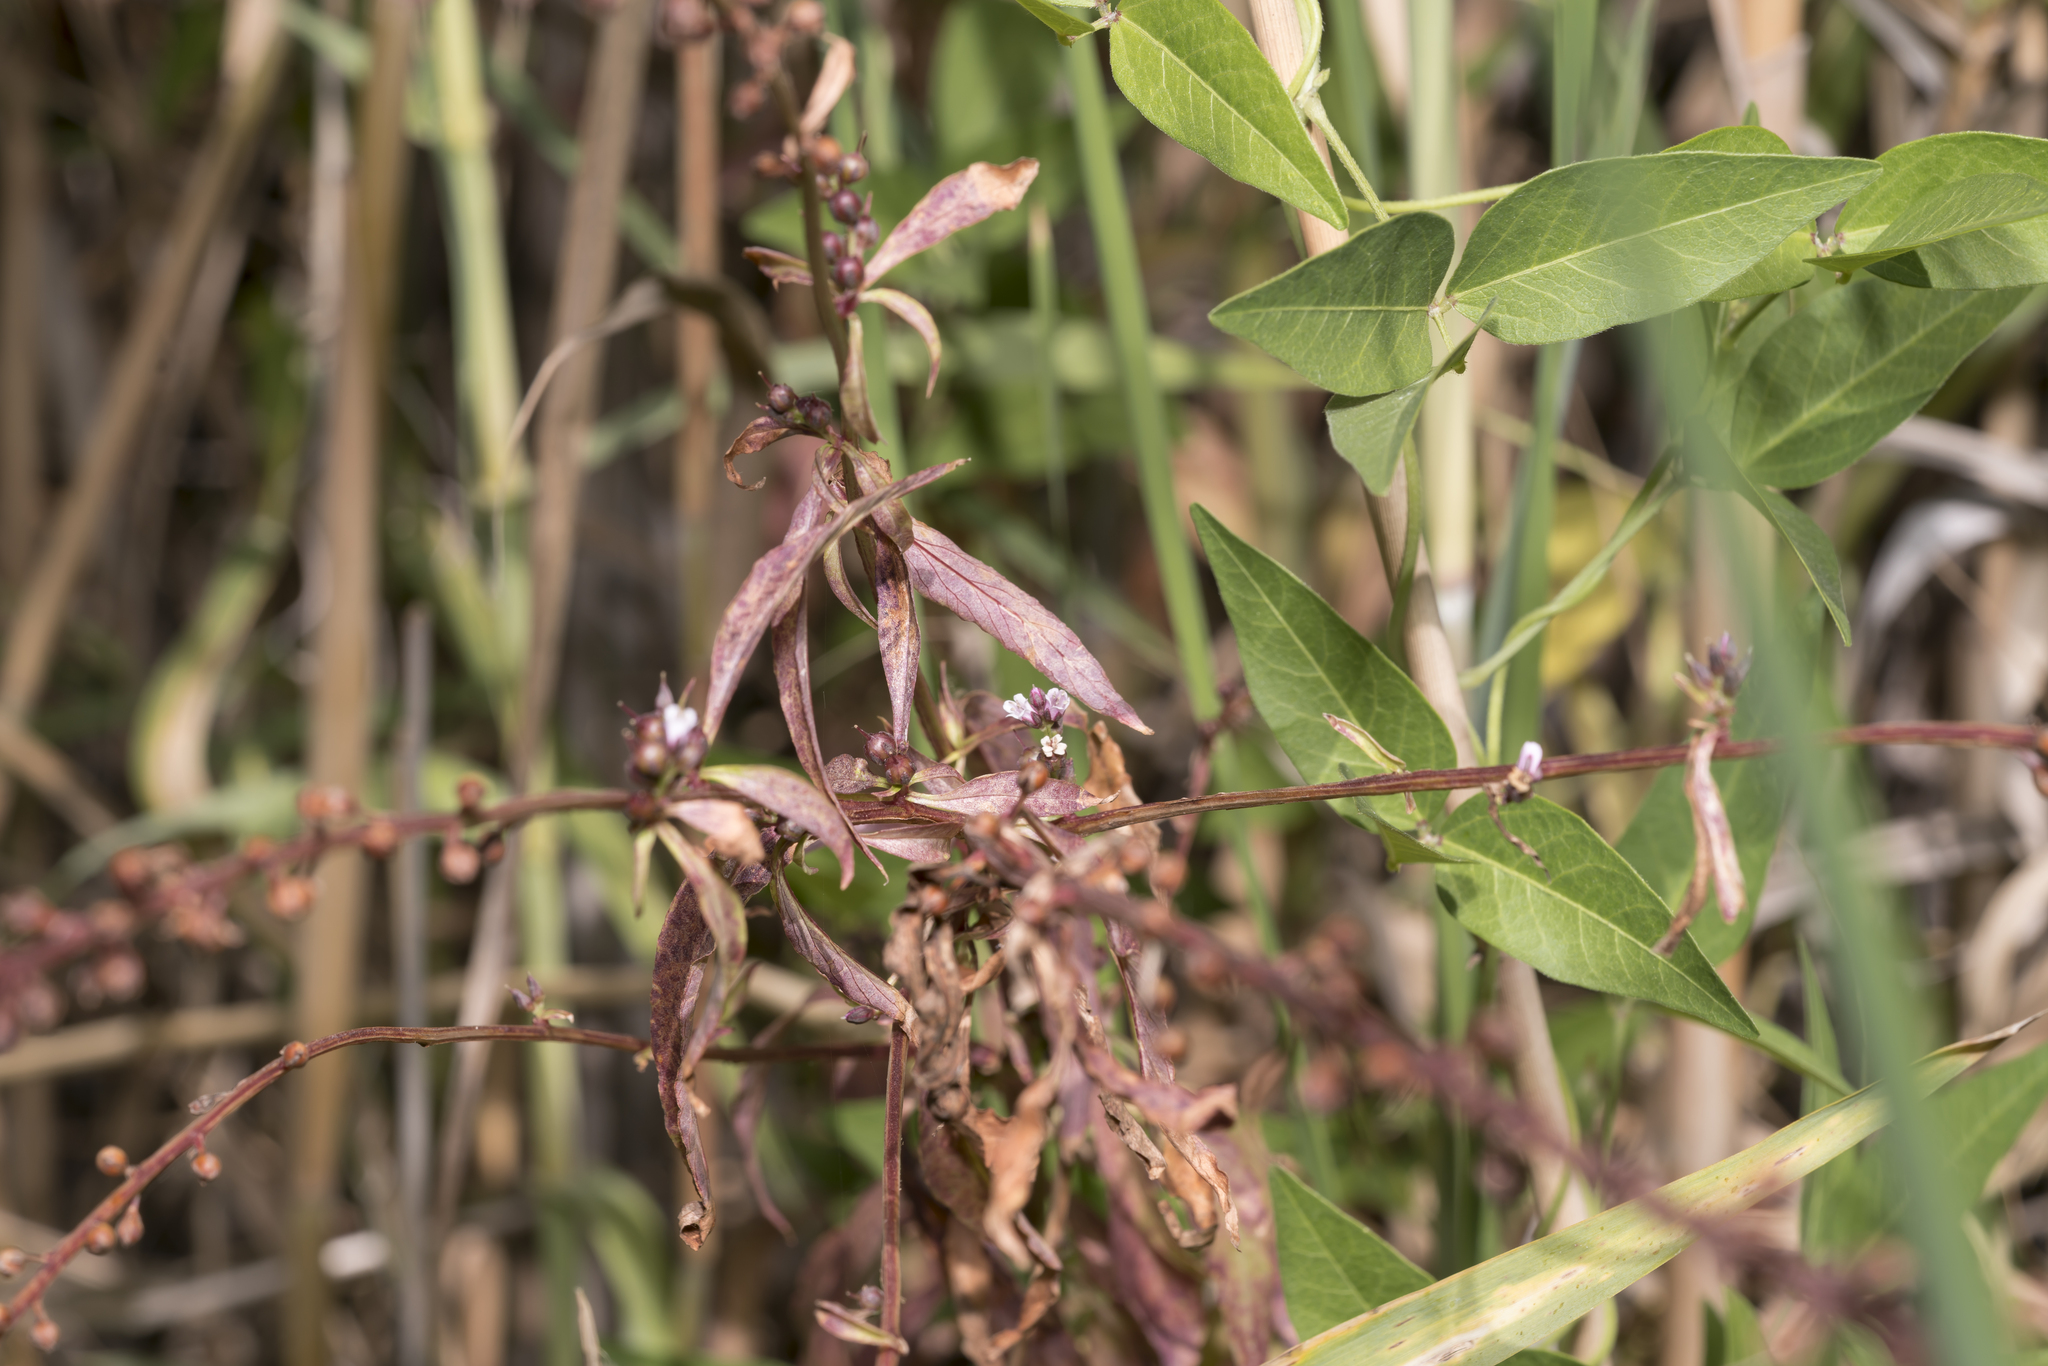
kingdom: Plantae
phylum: Tracheophyta
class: Magnoliopsida
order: Ericales
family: Primulaceae
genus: Lysimachia
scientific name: Lysimachia dubia
